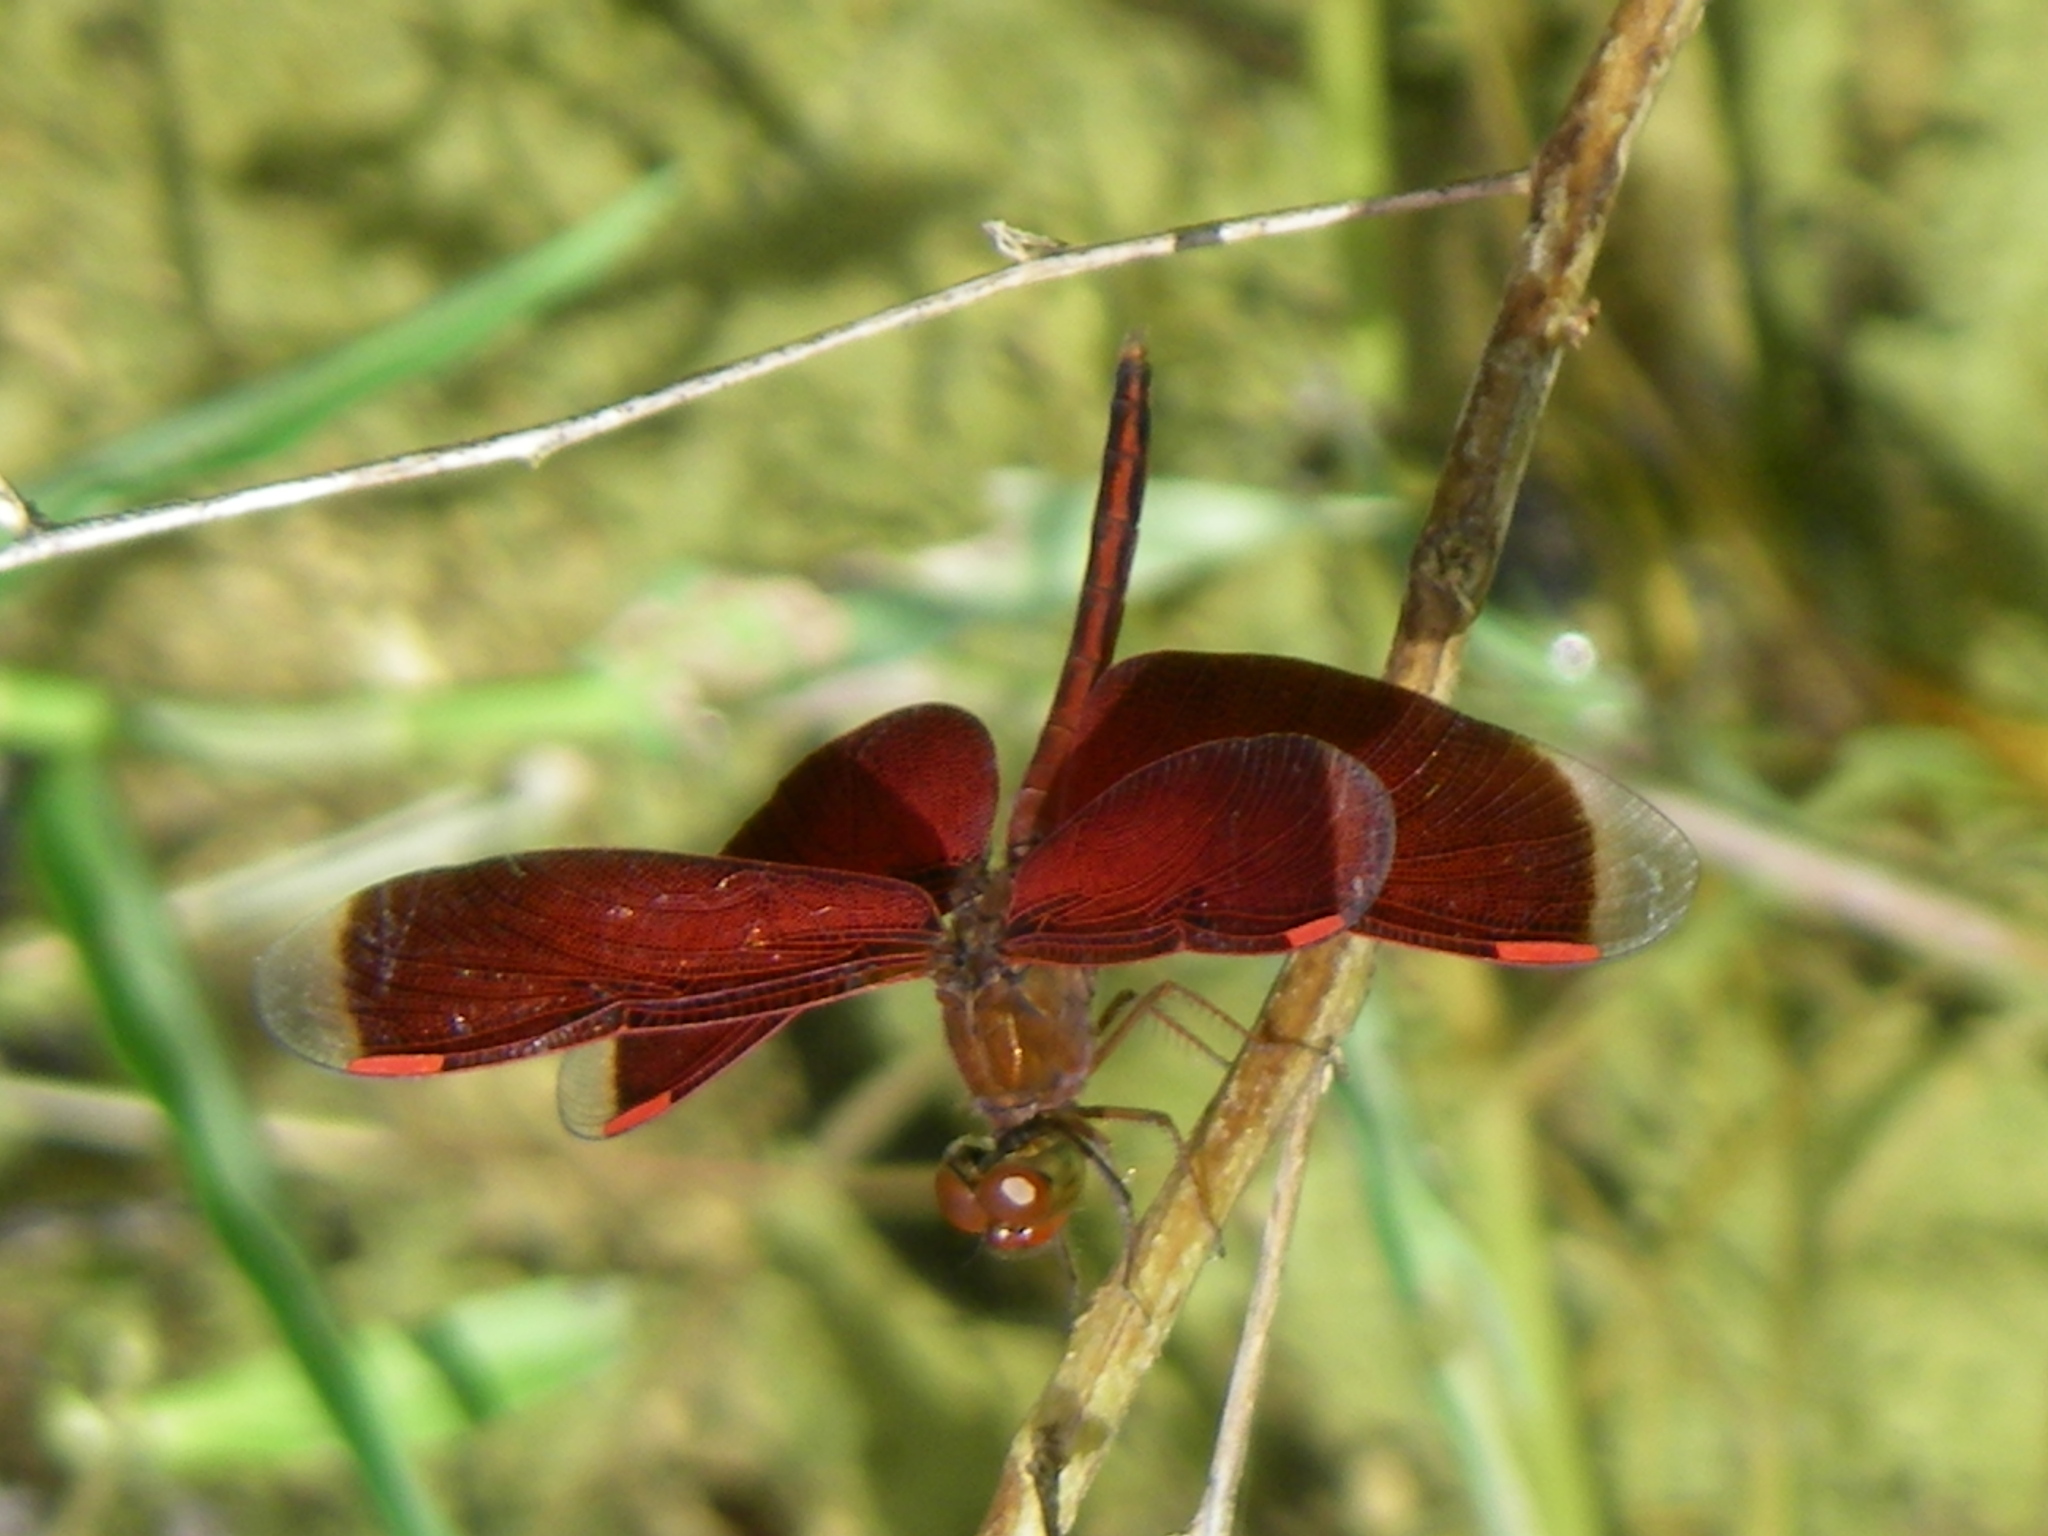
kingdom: Animalia
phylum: Arthropoda
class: Insecta
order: Odonata
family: Libellulidae
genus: Neurothemis
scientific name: Neurothemis stigmatizans
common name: Painted grasshawk
